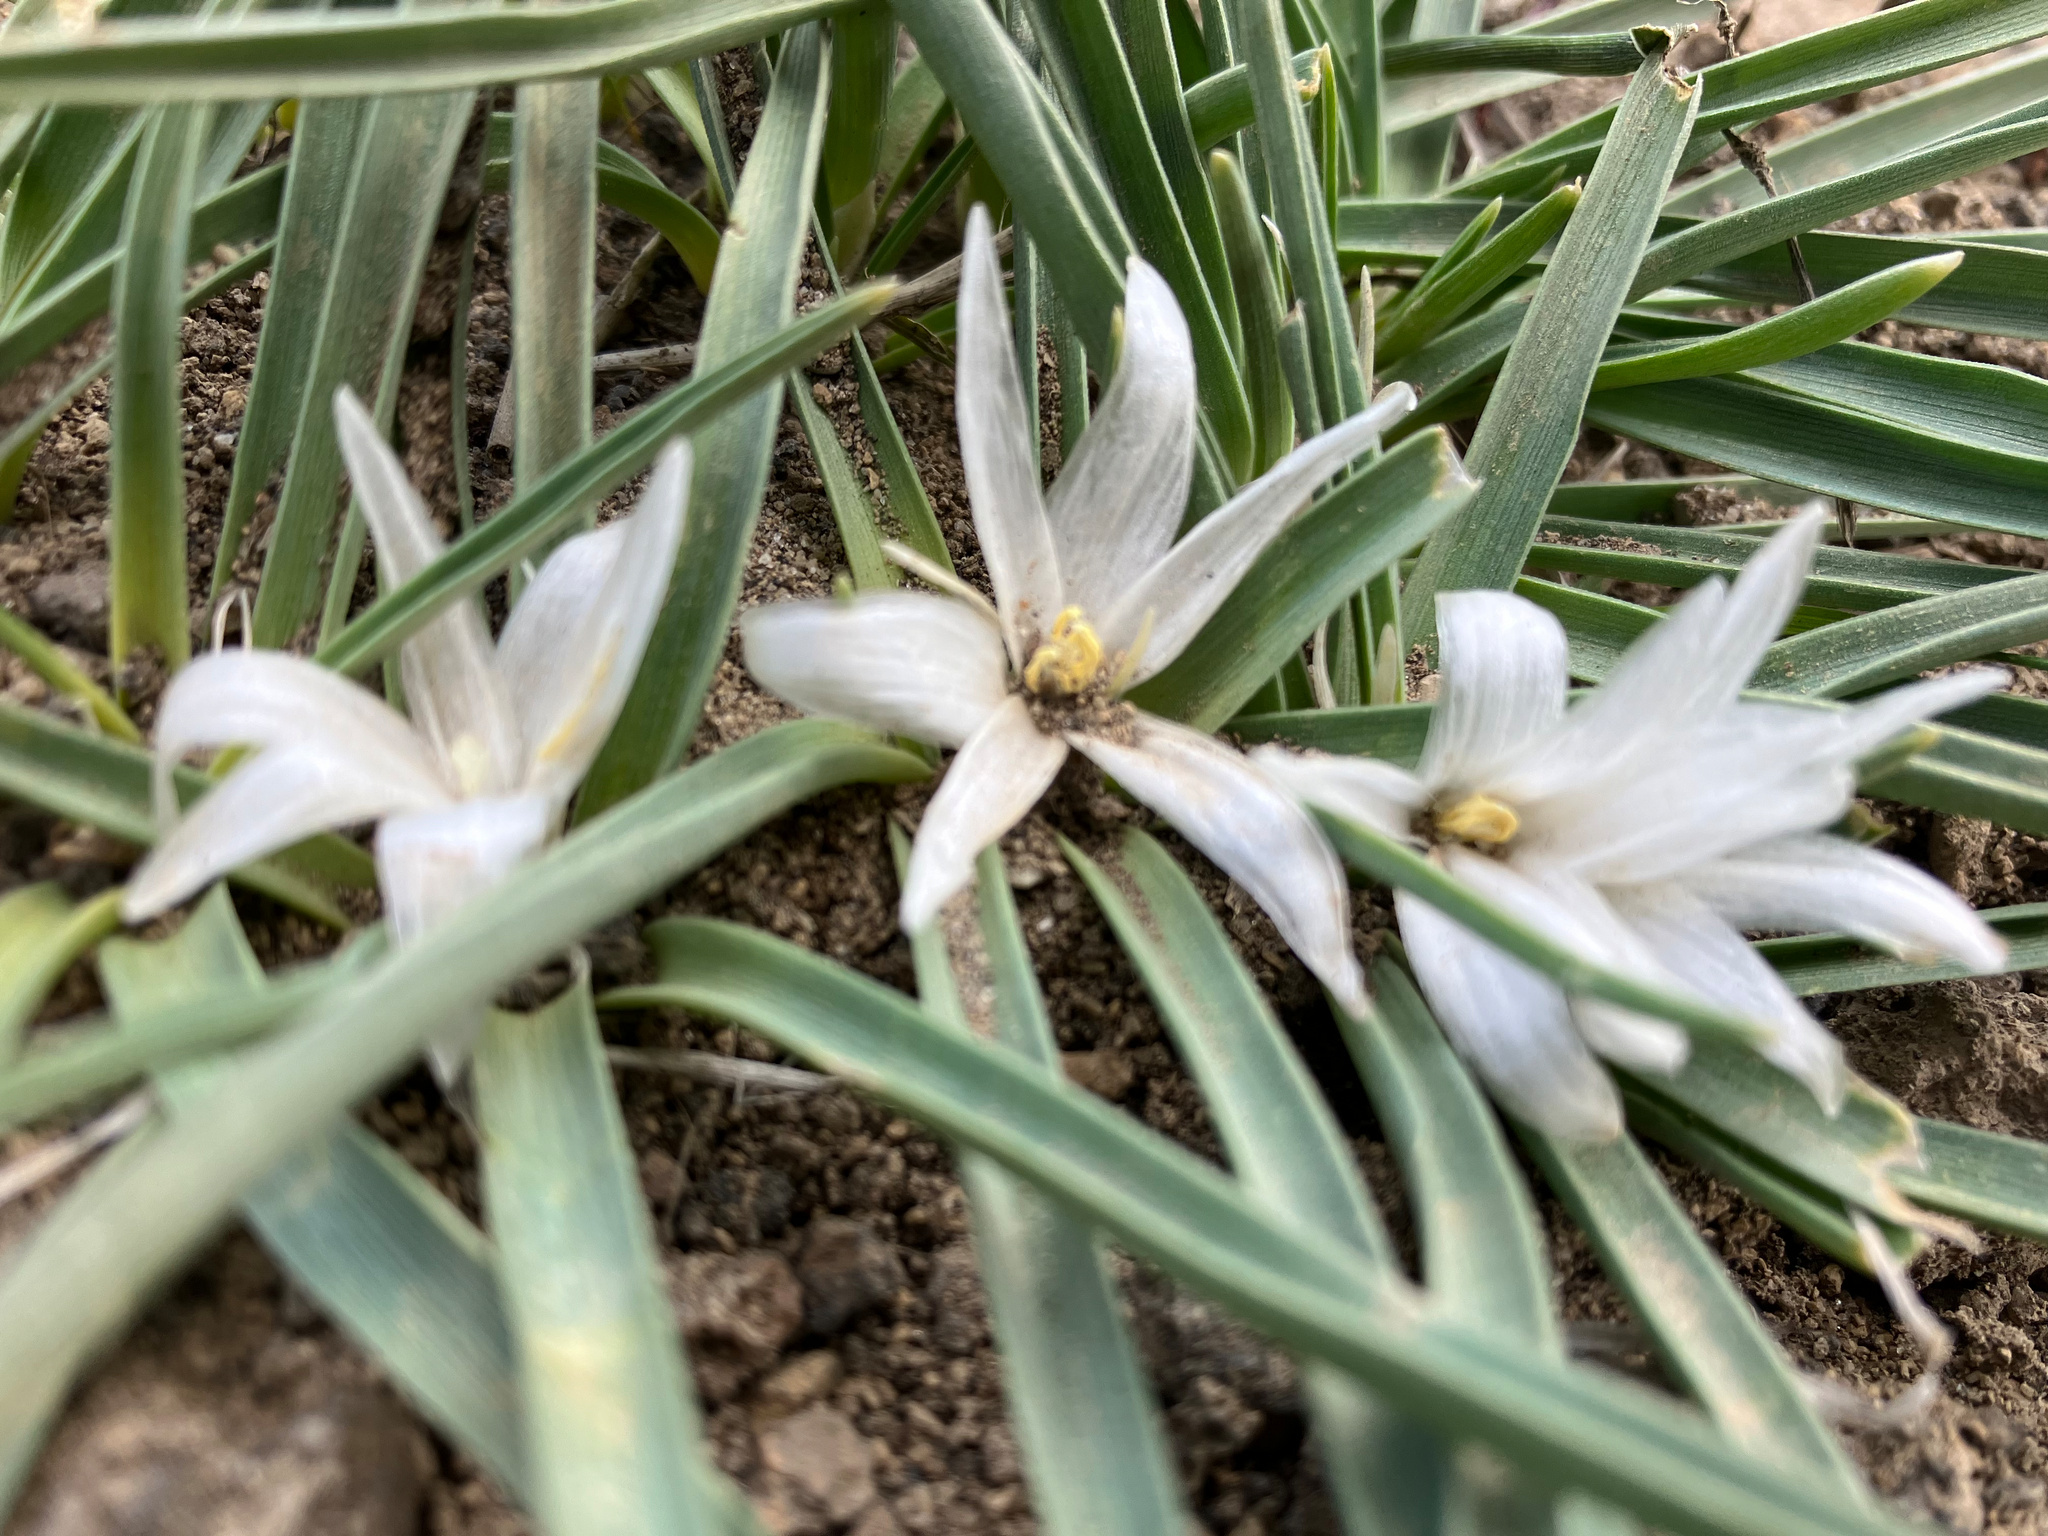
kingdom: Plantae
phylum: Tracheophyta
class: Liliopsida
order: Asparagales
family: Asparagaceae
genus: Leucocrinum
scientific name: Leucocrinum montanum
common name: Mountain-lily
